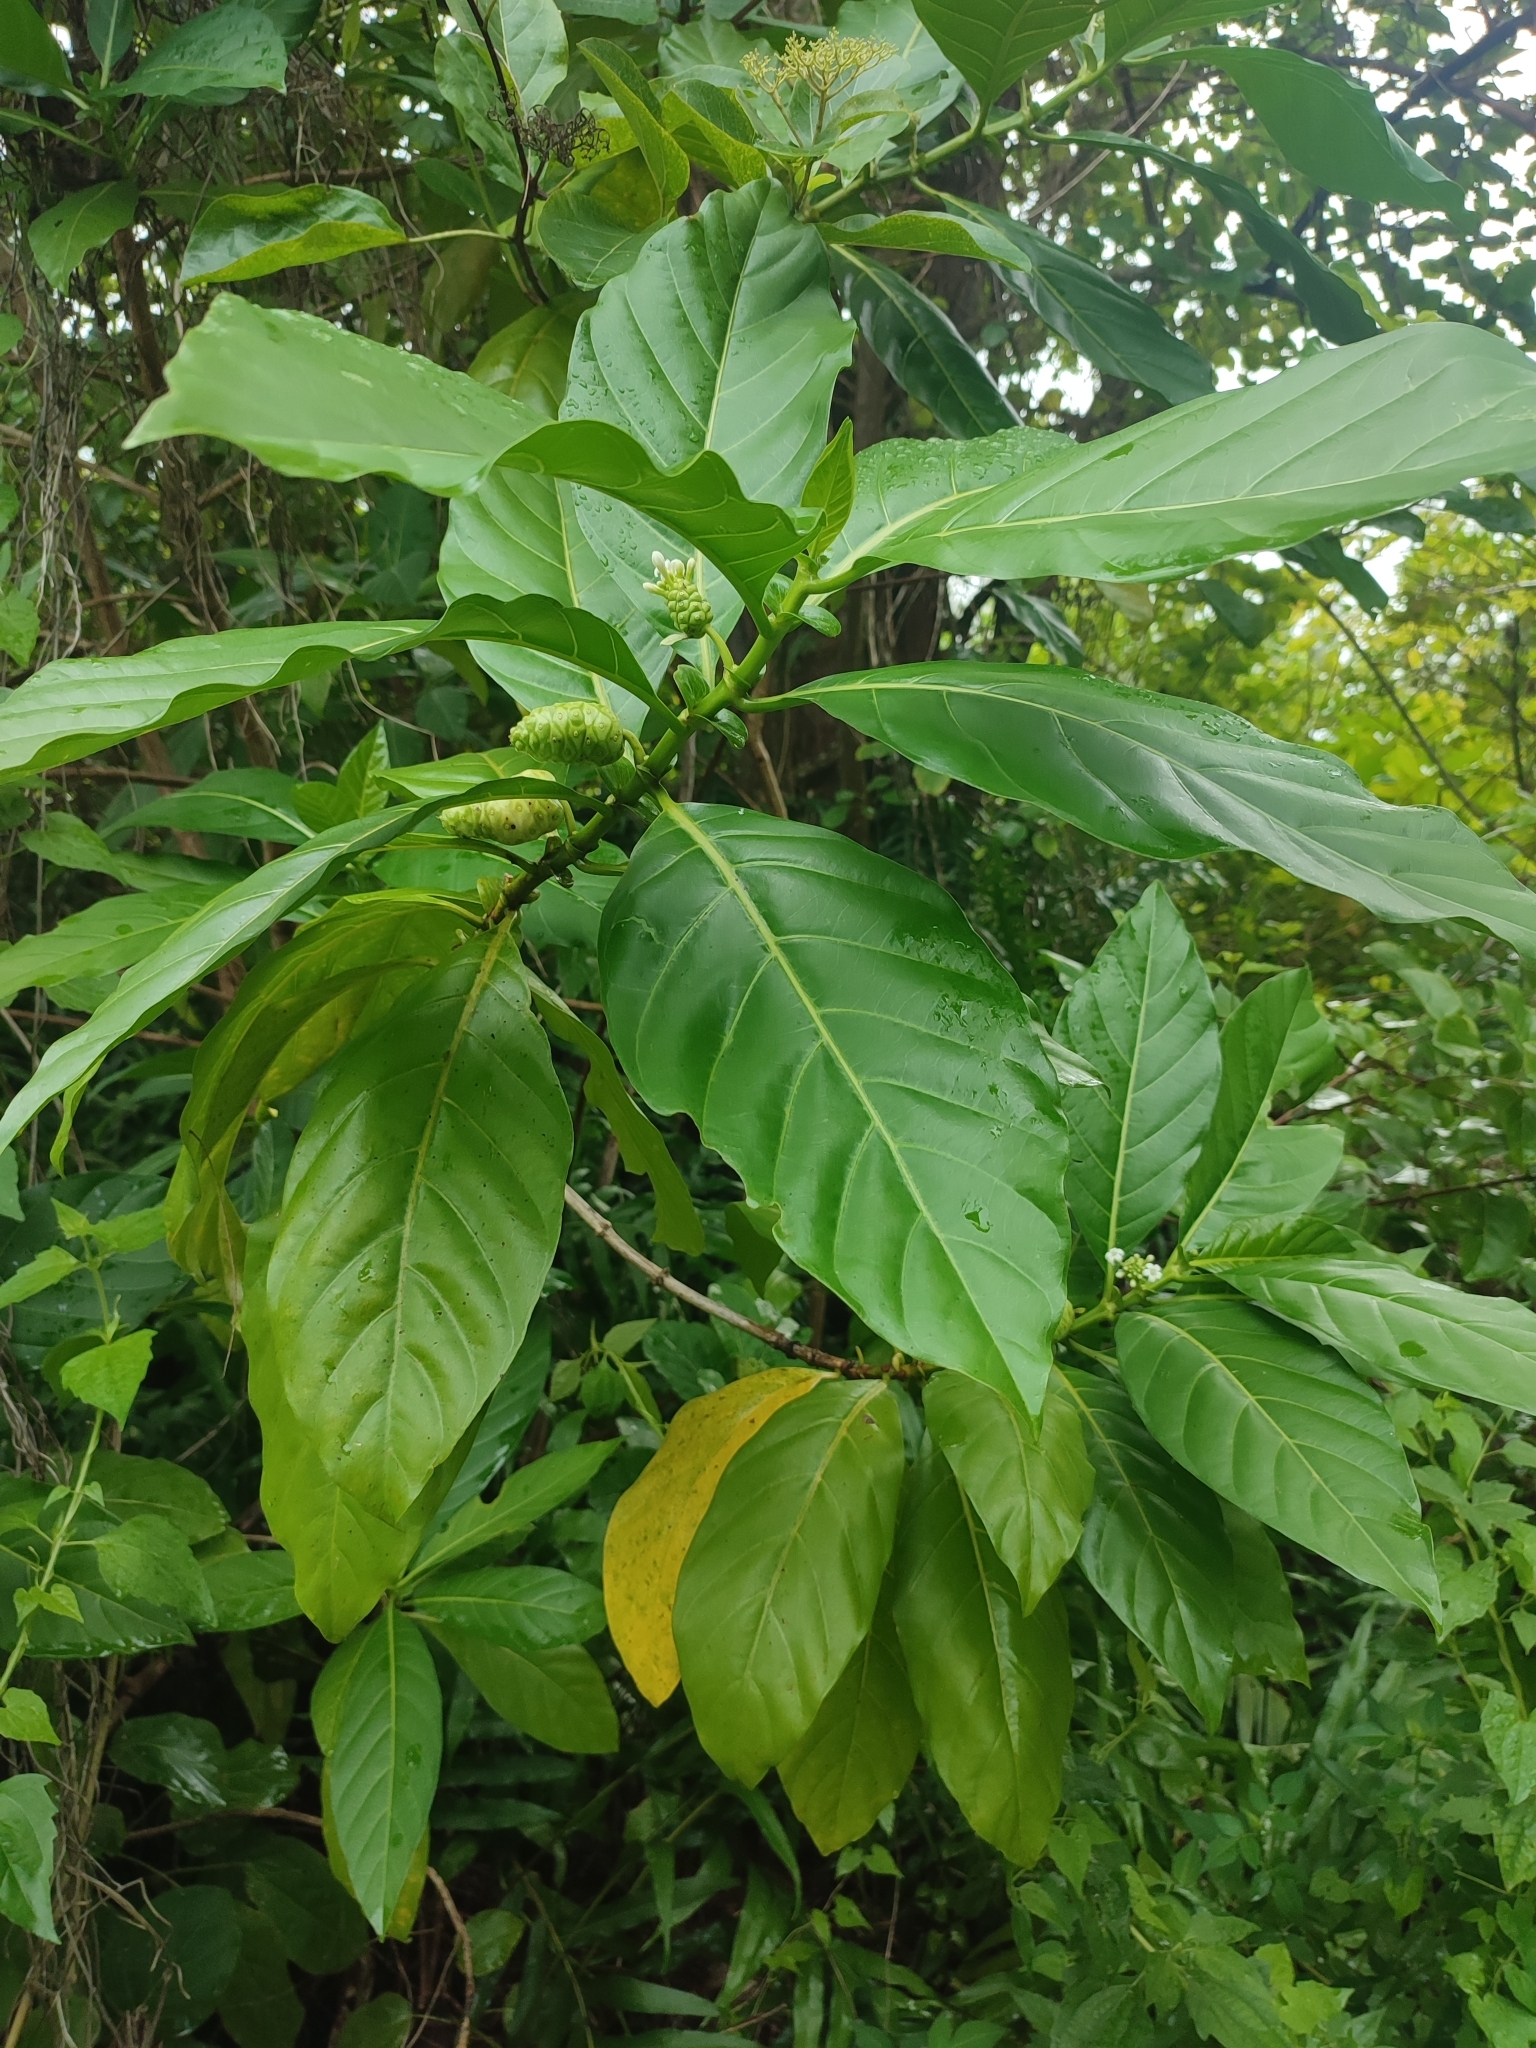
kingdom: Plantae
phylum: Tracheophyta
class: Magnoliopsida
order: Gentianales
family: Rubiaceae
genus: Morinda
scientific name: Morinda citrifolia
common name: Indian-mulberry
